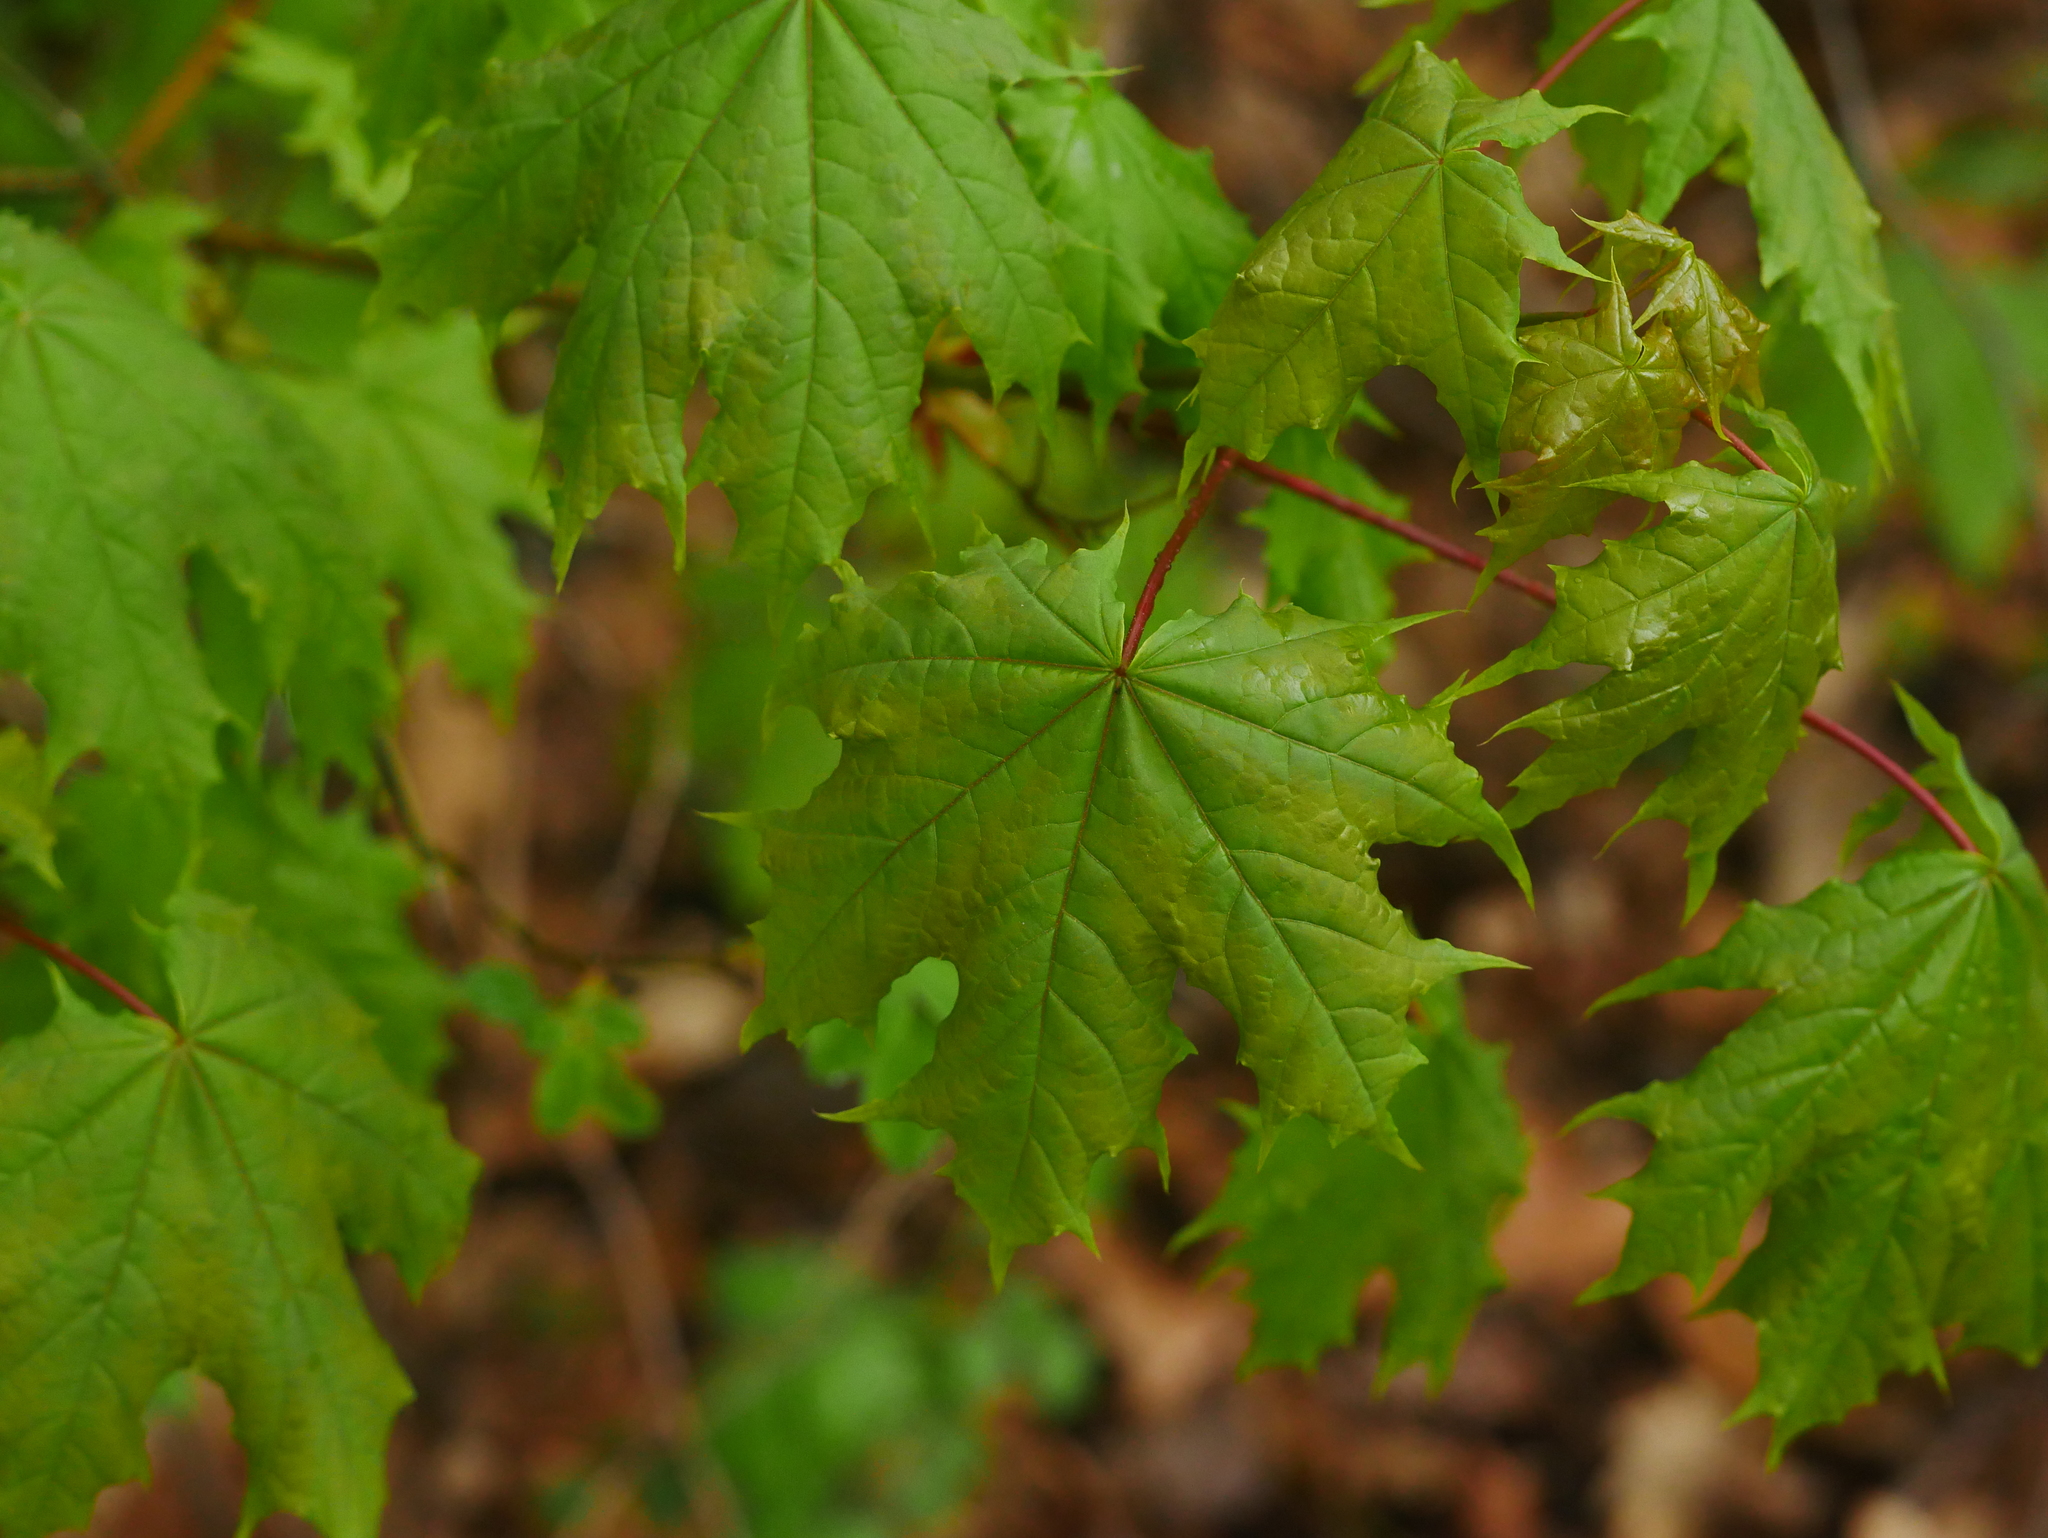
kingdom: Plantae
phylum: Tracheophyta
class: Magnoliopsida
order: Sapindales
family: Sapindaceae
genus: Acer
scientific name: Acer platanoides
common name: Norway maple
